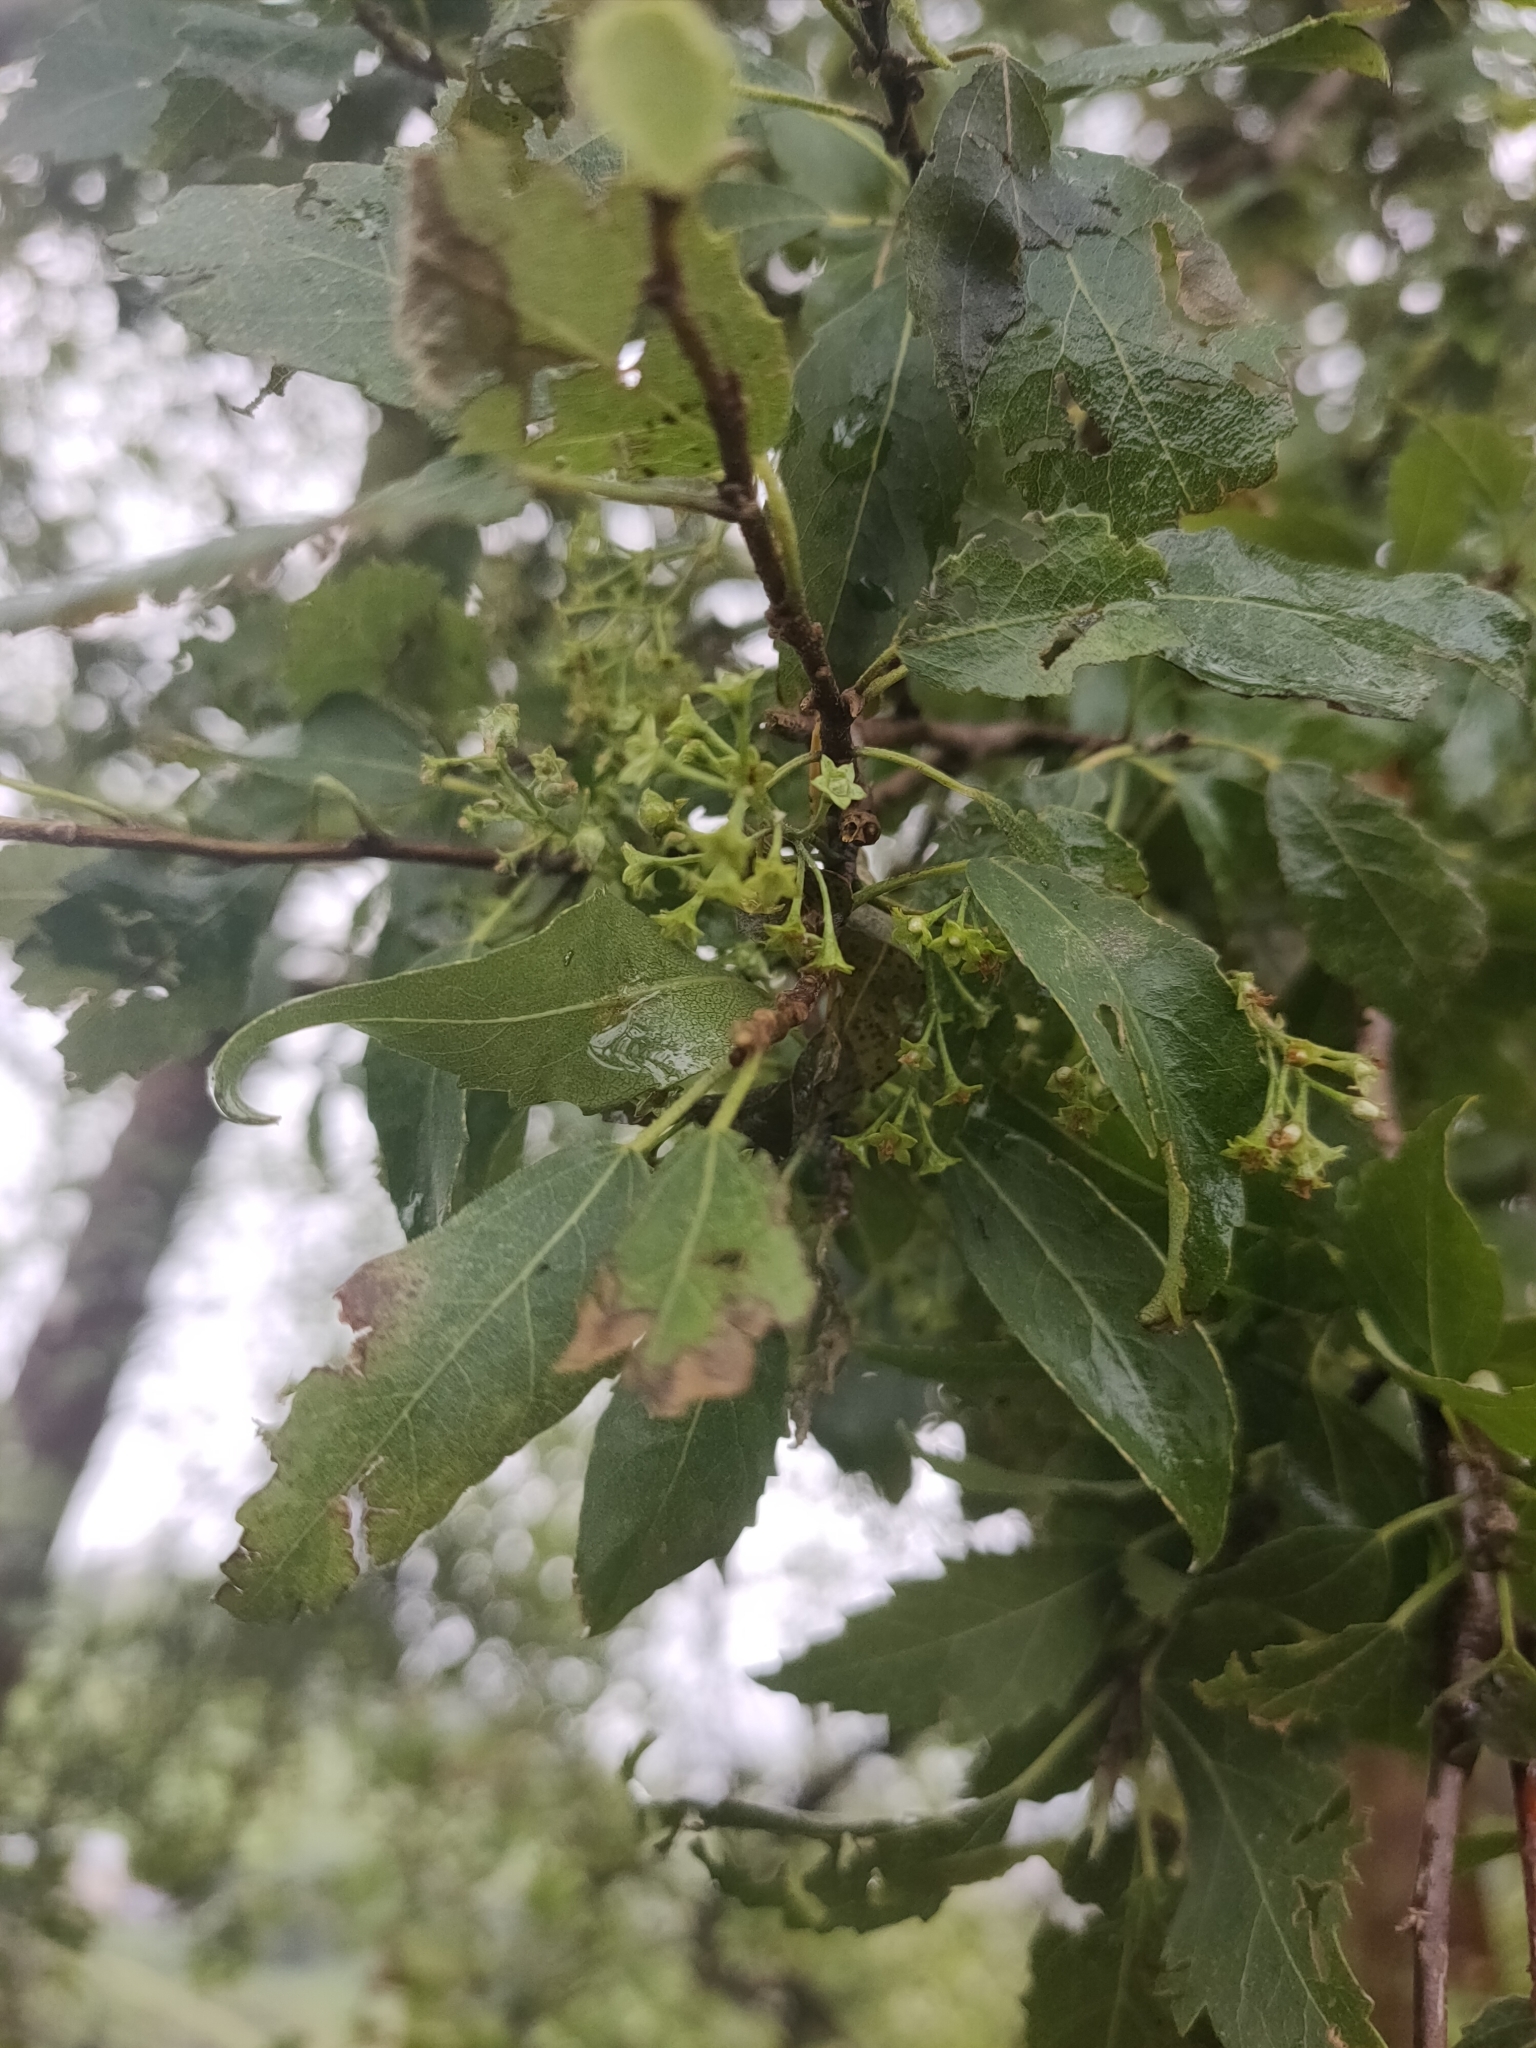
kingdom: Plantae
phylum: Tracheophyta
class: Magnoliopsida
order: Malvales
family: Malvaceae
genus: Plagianthus
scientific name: Plagianthus regius
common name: Manatu
